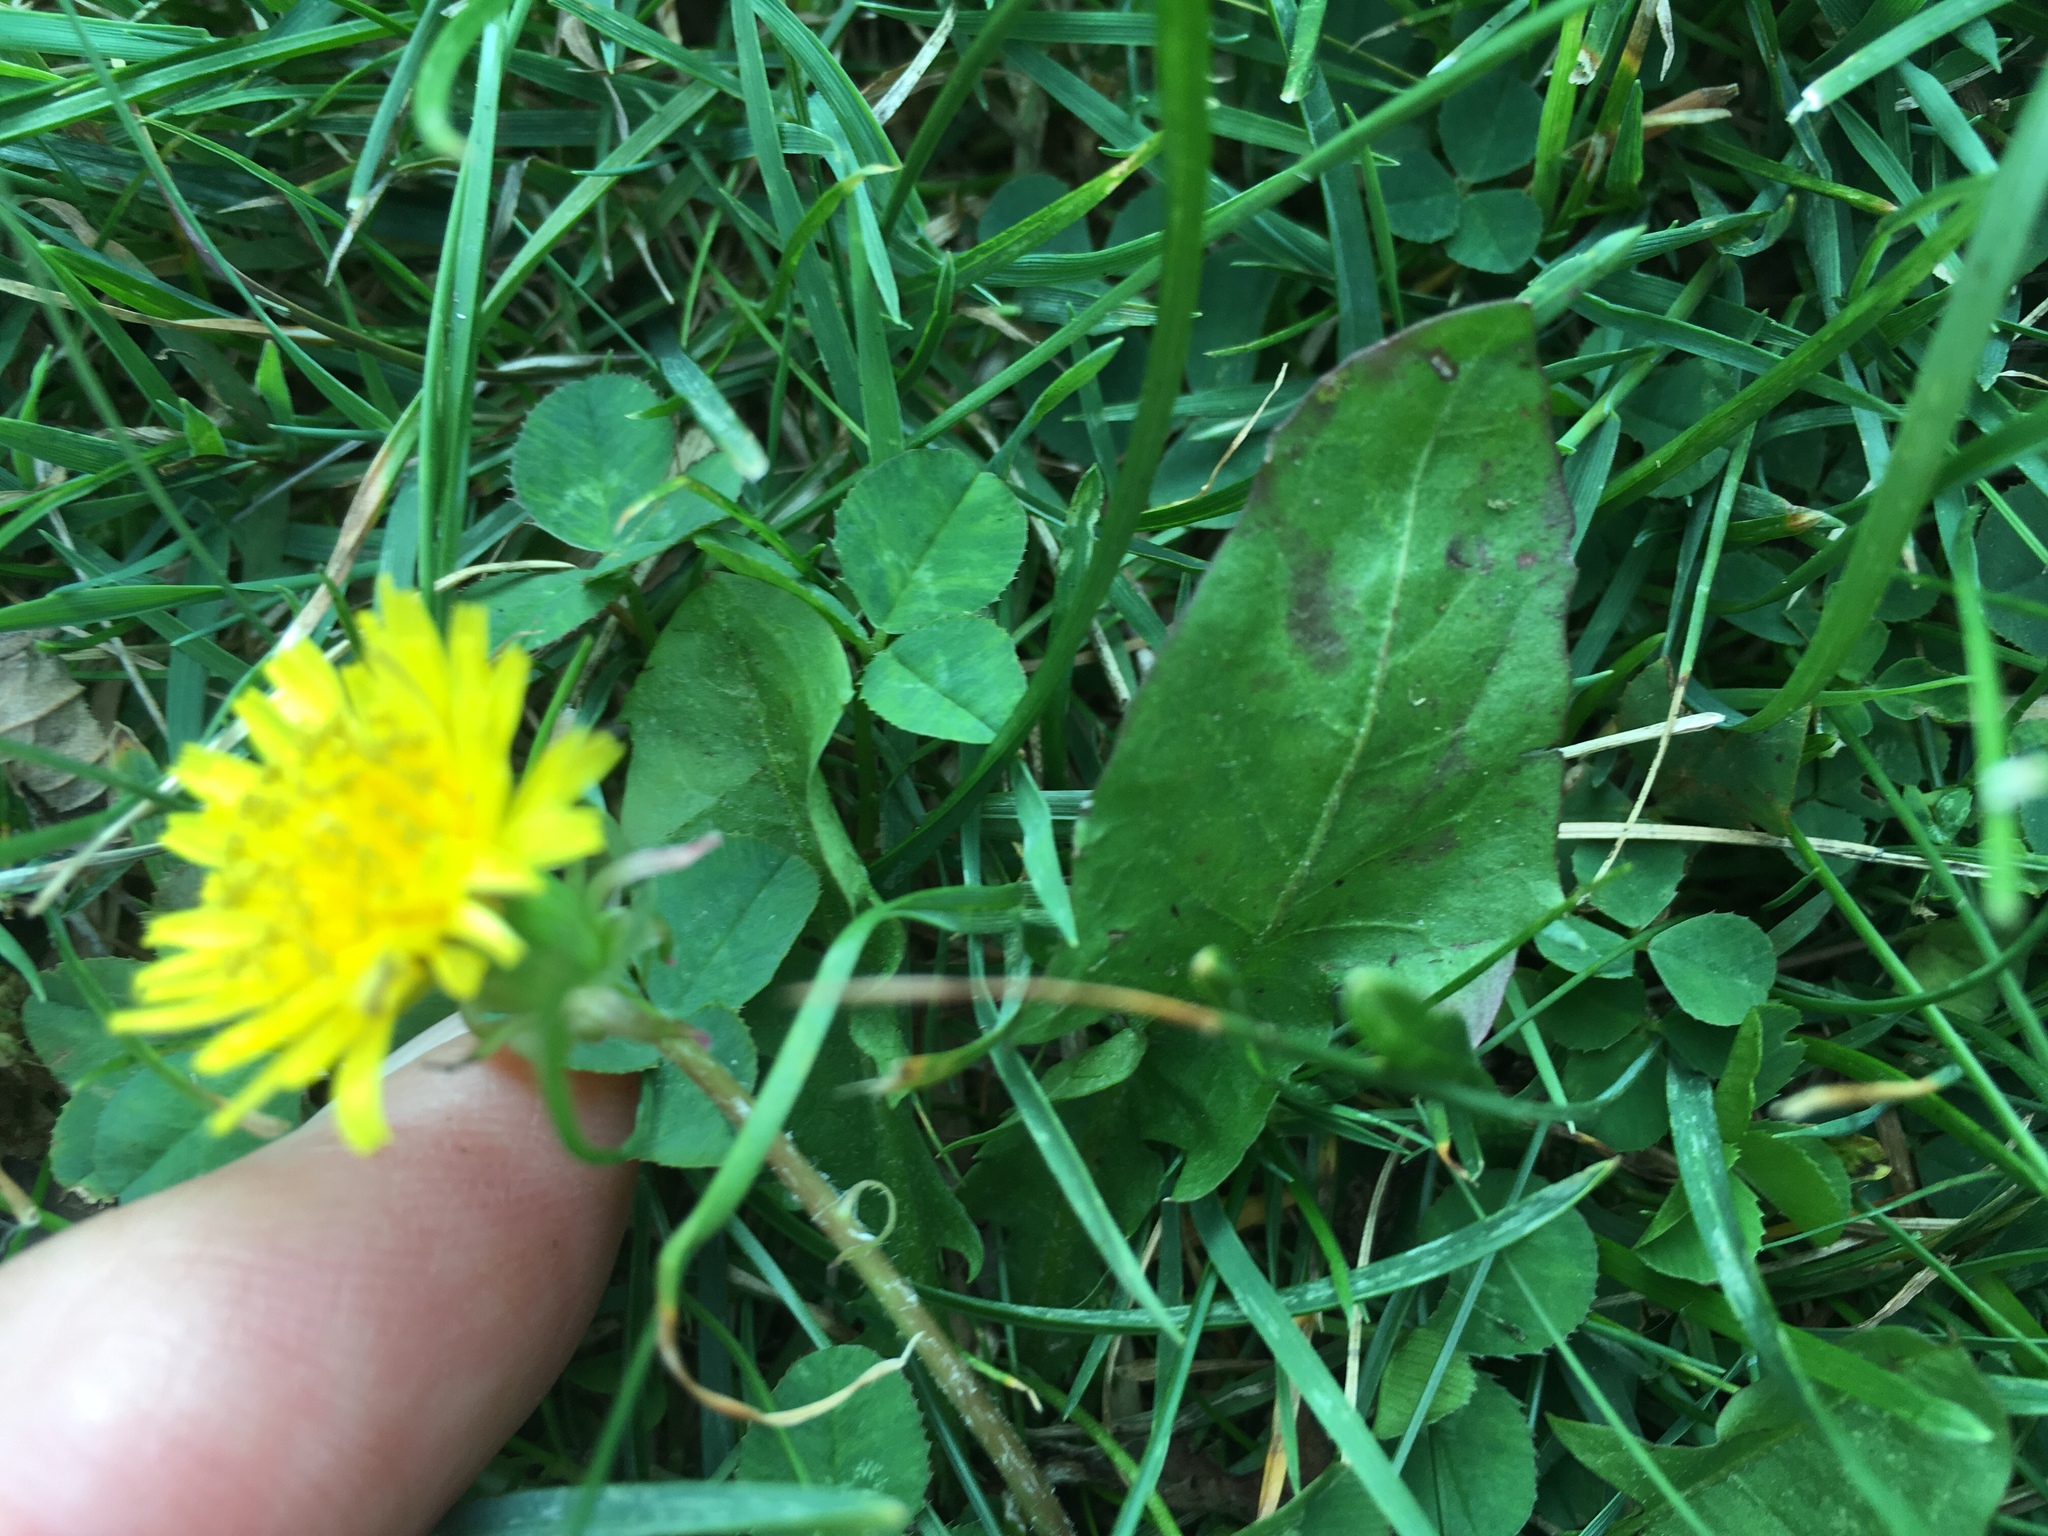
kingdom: Plantae
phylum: Tracheophyta
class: Magnoliopsida
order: Asterales
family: Asteraceae
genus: Taraxacum
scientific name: Taraxacum officinale
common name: Common dandelion
